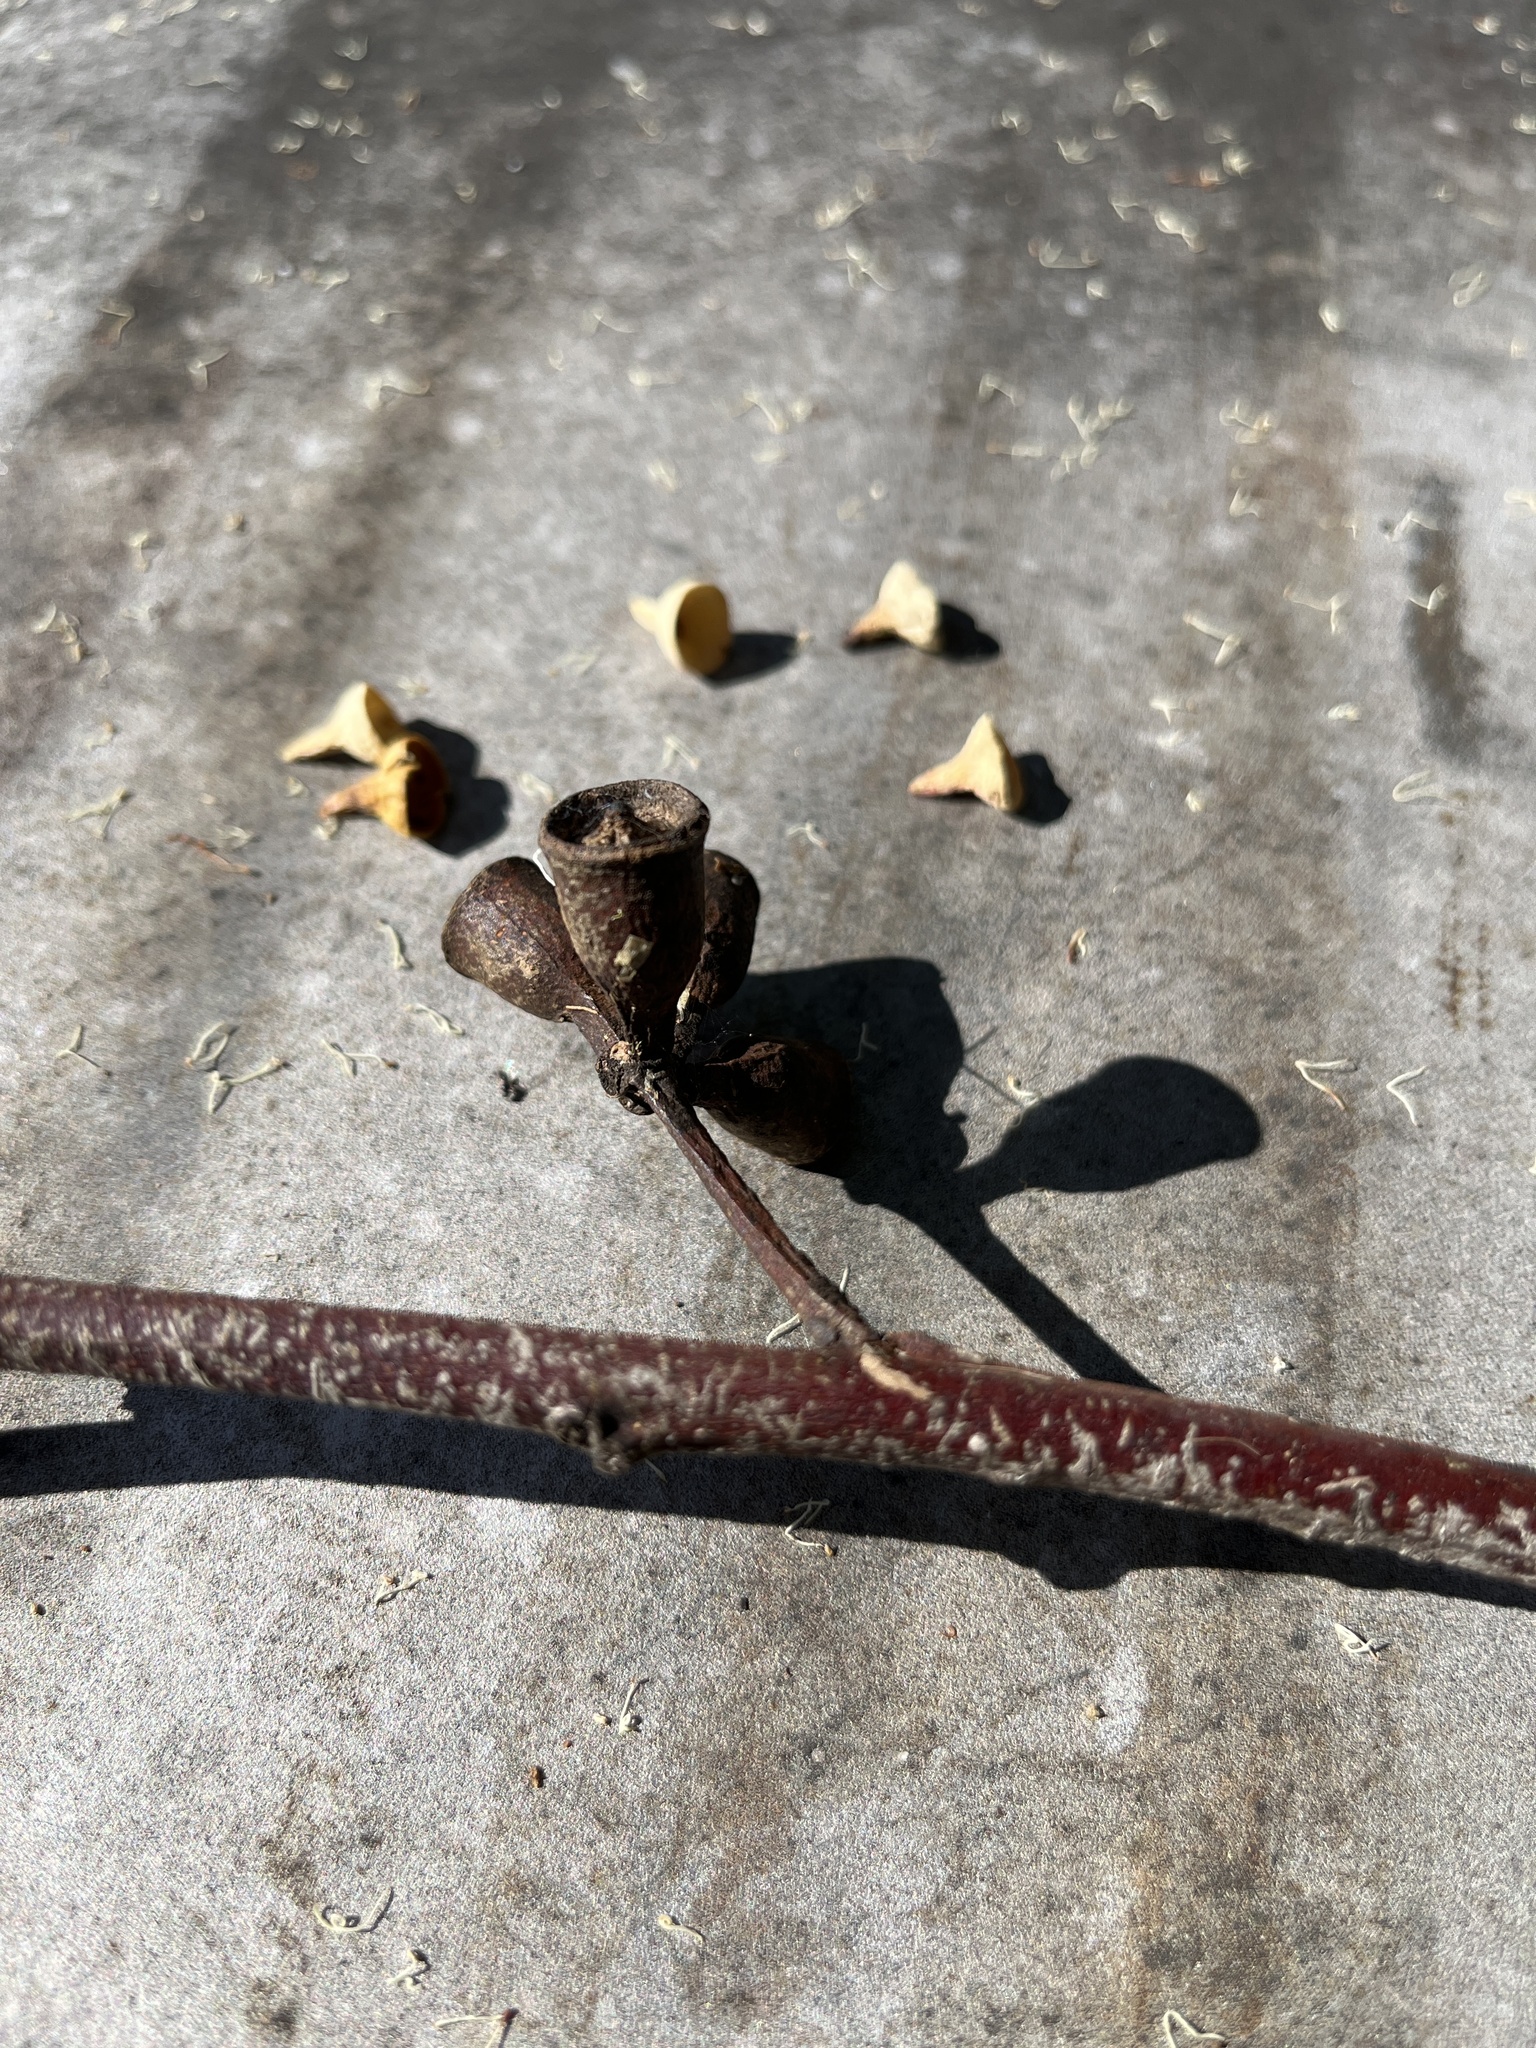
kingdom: Plantae
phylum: Tracheophyta
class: Magnoliopsida
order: Myrtales
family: Myrtaceae
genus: Eucalyptus
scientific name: Eucalyptus robusta
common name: Swampmahogany
